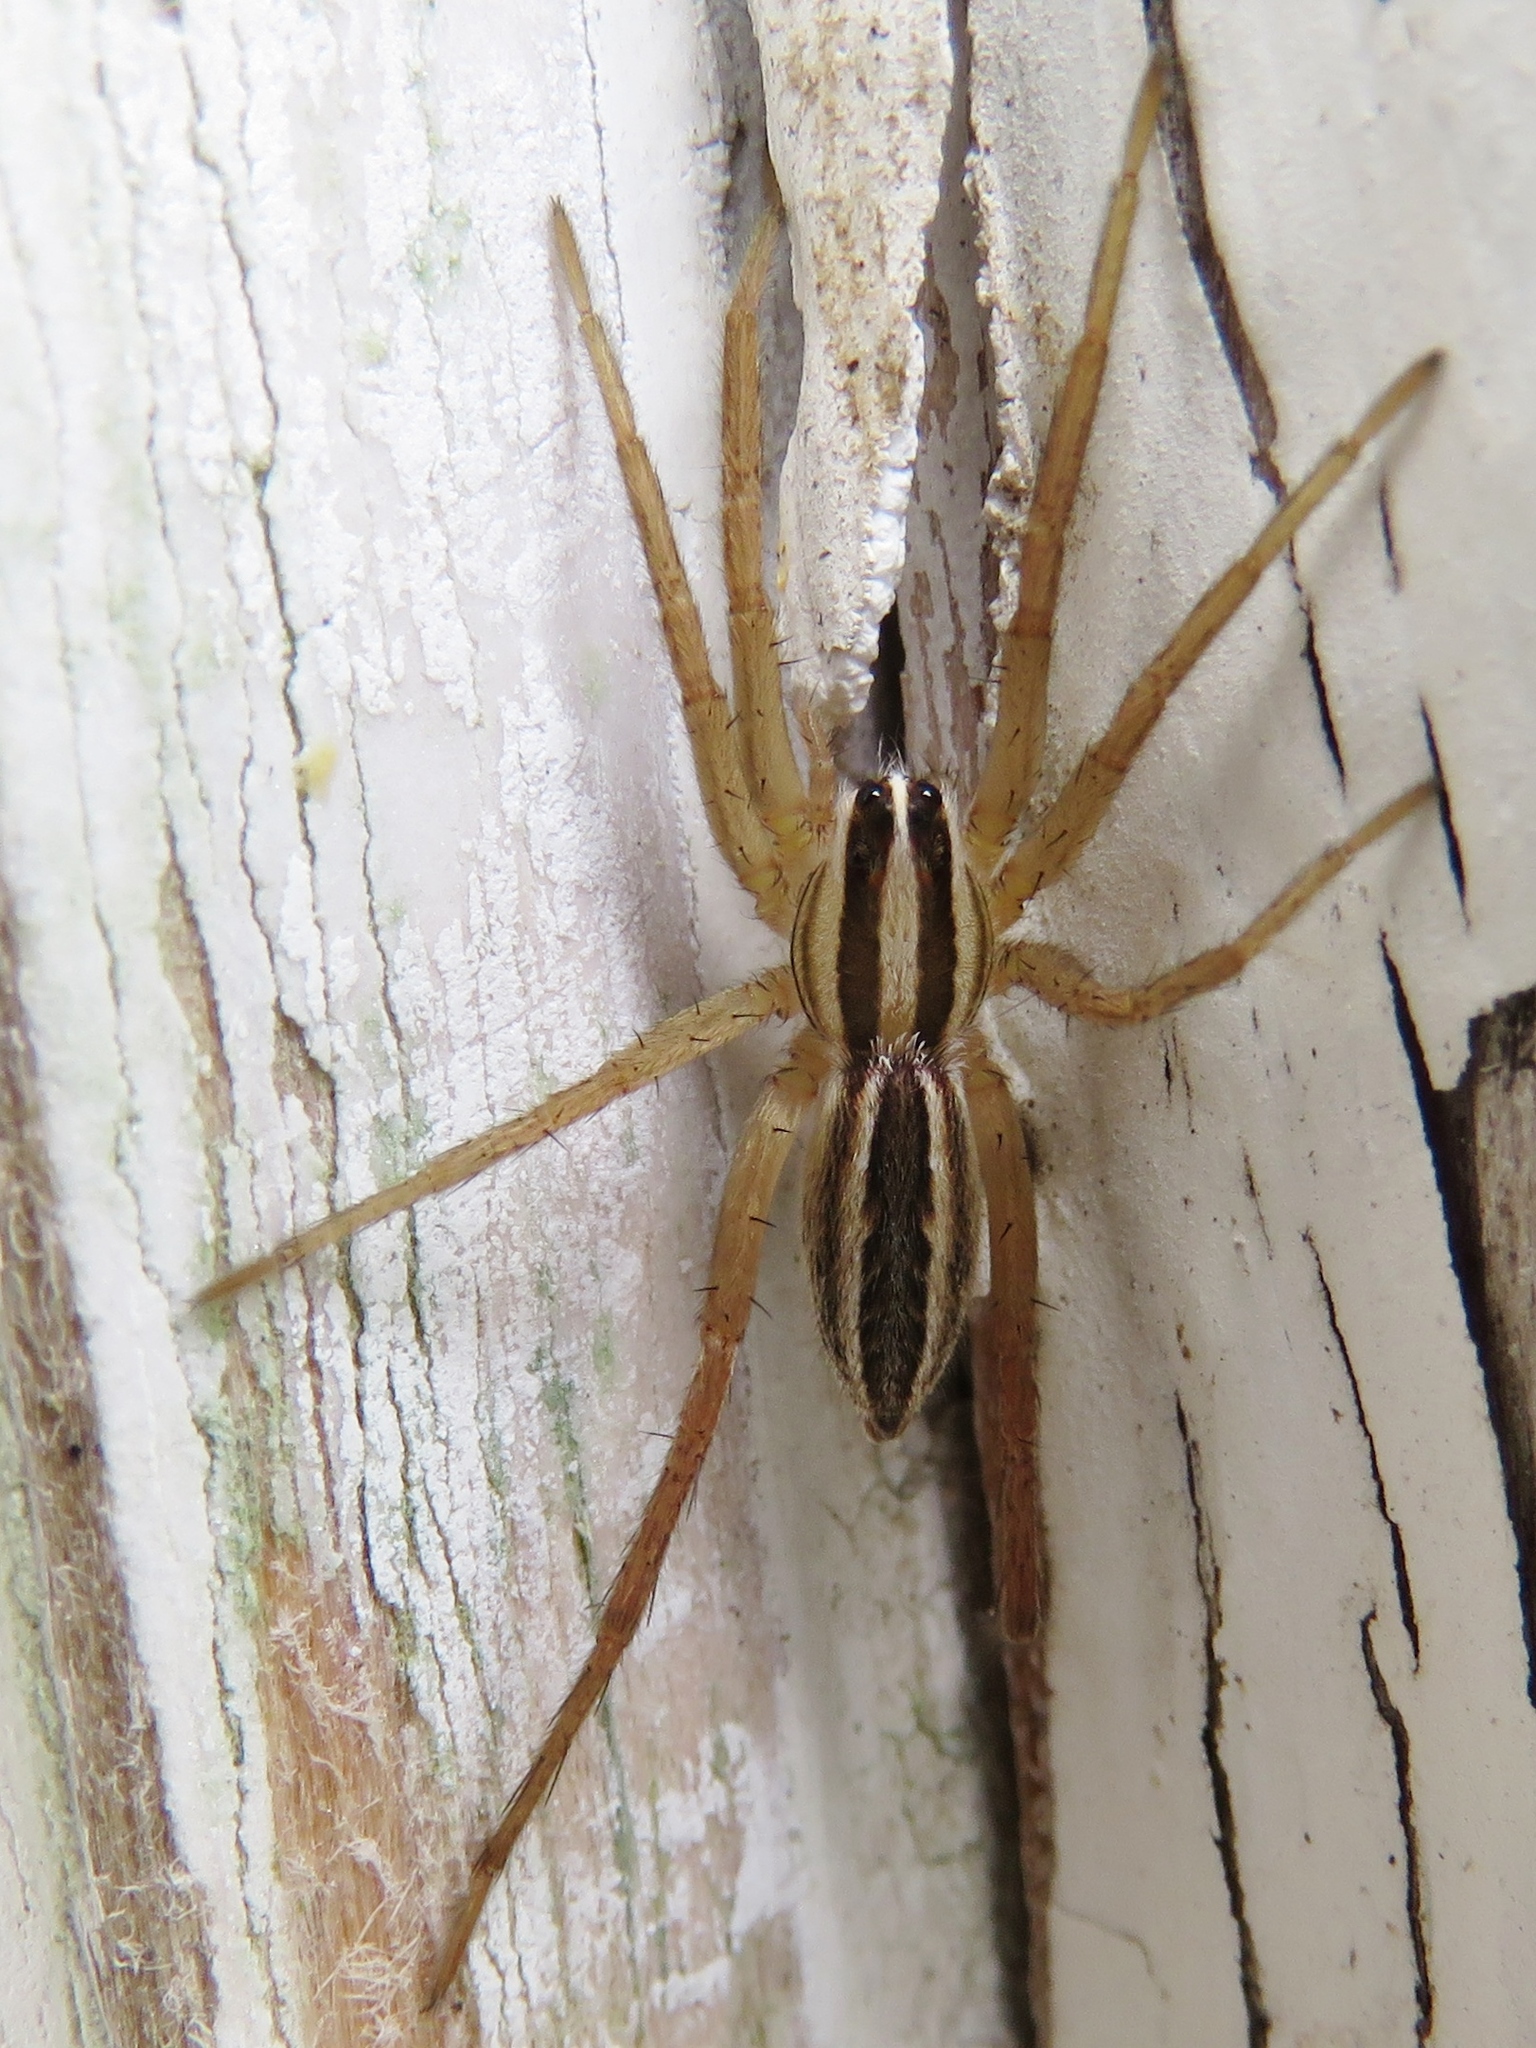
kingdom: Animalia
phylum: Arthropoda
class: Arachnida
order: Araneae
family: Lycosidae
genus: Rabidosa
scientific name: Rabidosa rabida
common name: Rabid wolf spider
